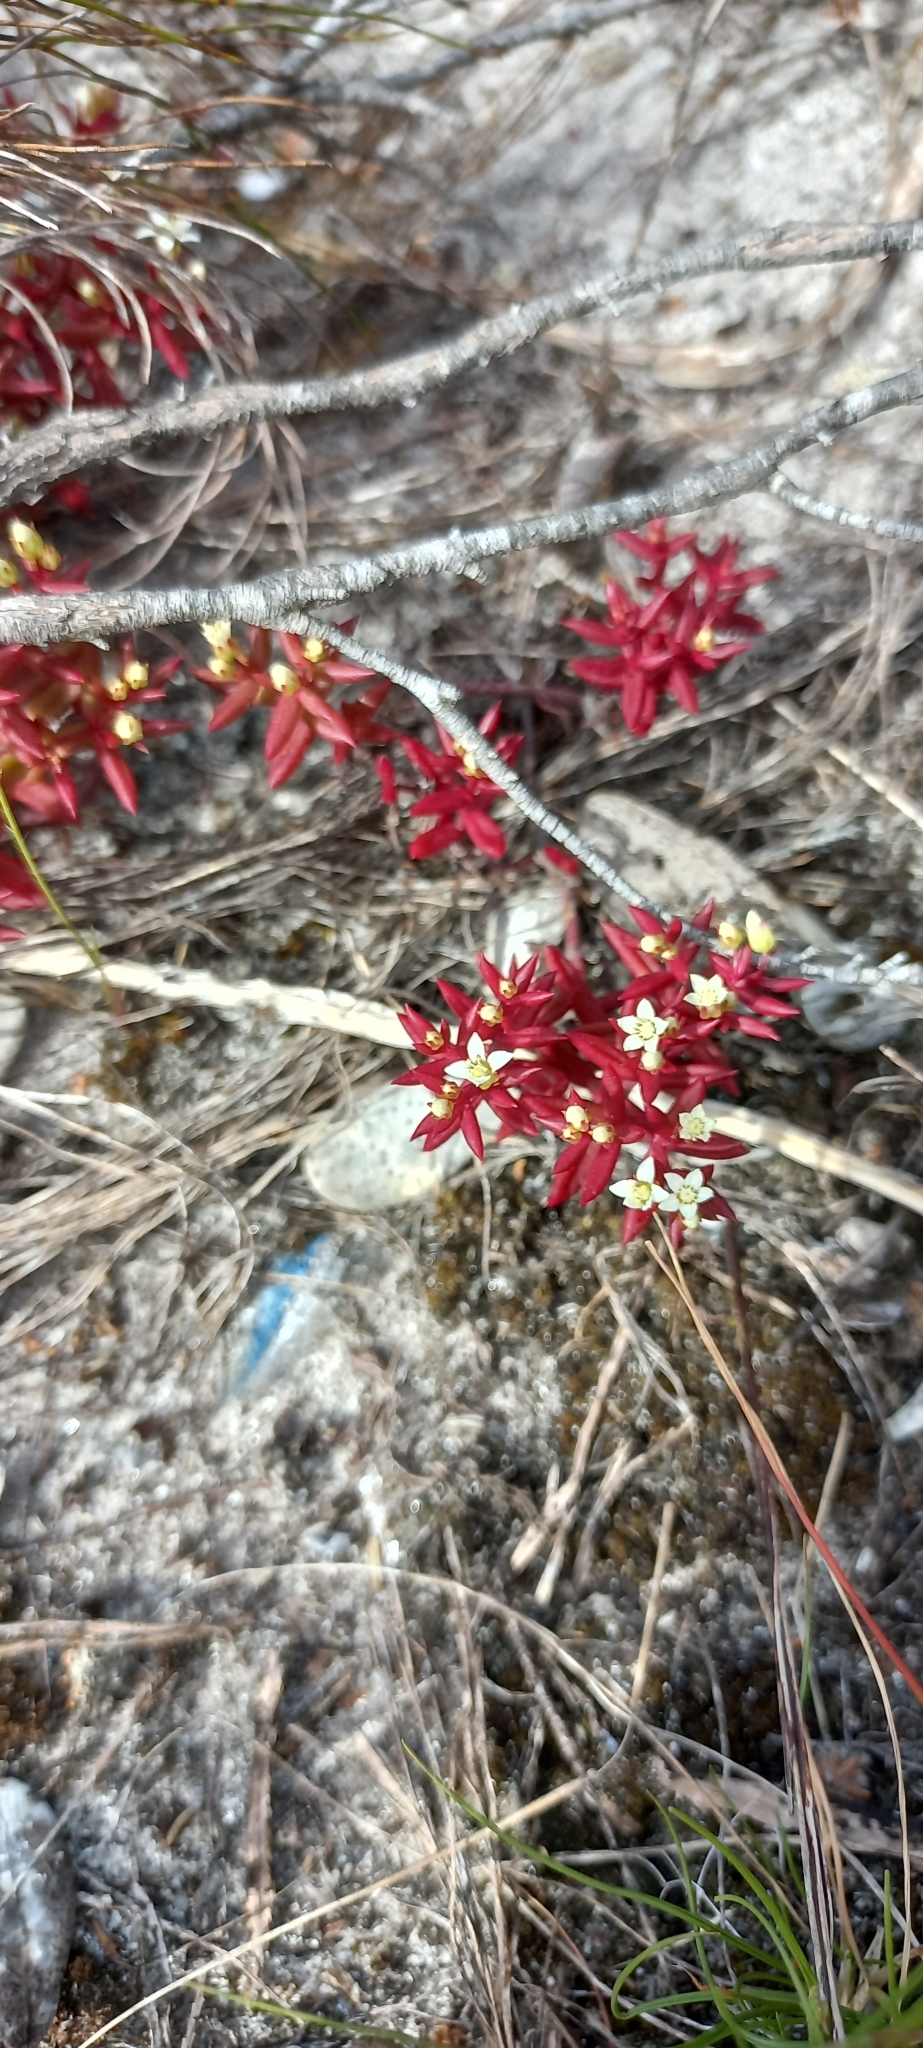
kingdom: Plantae
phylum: Tracheophyta
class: Magnoliopsida
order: Saxifragales
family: Crassulaceae
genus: Crassula
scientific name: Crassula expansa
